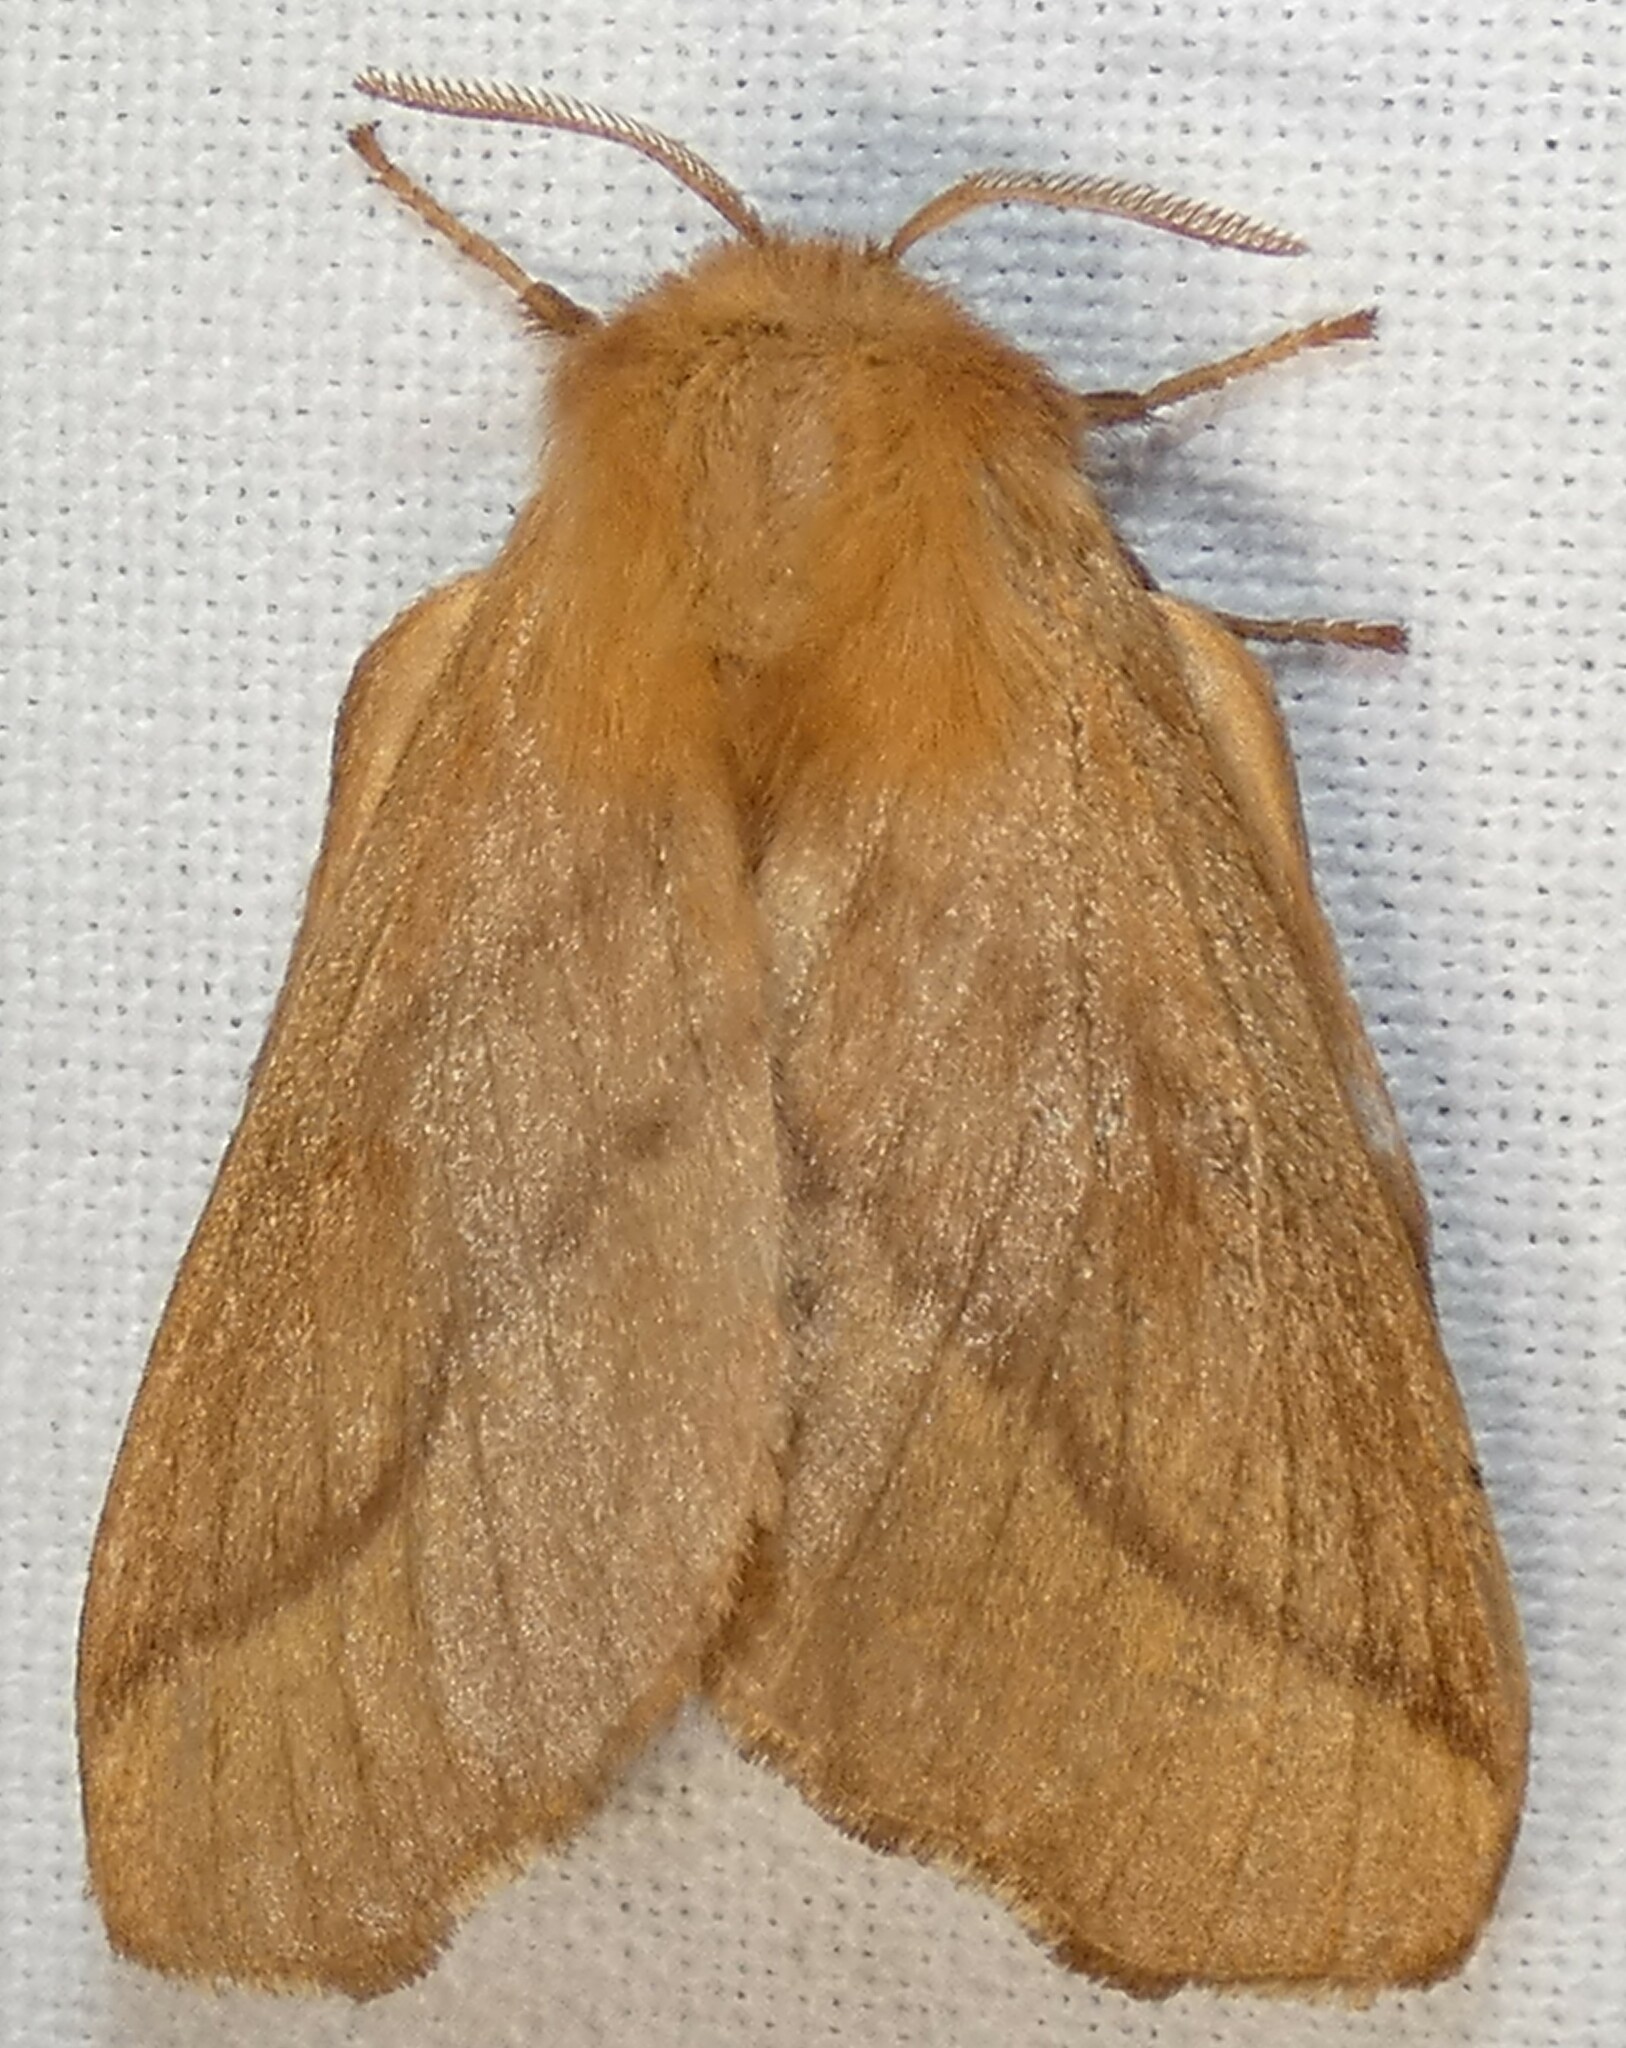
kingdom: Animalia
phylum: Arthropoda
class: Insecta
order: Lepidoptera
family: Lasiocampidae
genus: Malacosoma
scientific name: Malacosoma disstria
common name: Forest tent caterpillar
